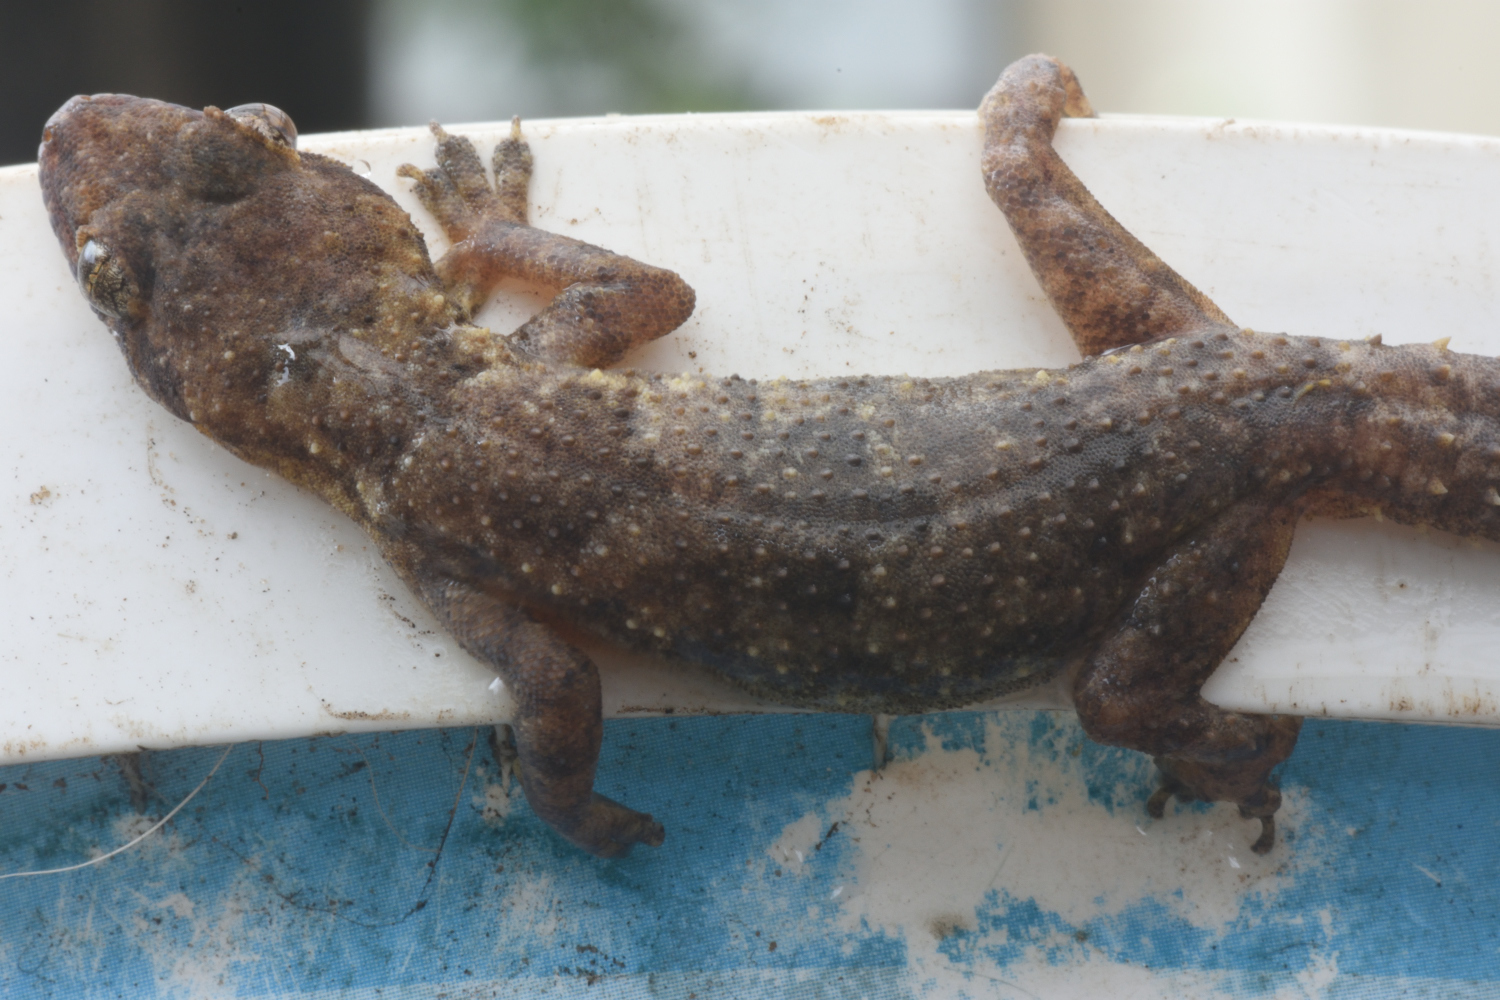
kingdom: Animalia
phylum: Chordata
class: Squamata
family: Gekkonidae
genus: Hemidactylus
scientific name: Hemidactylus mabouia
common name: House gecko
